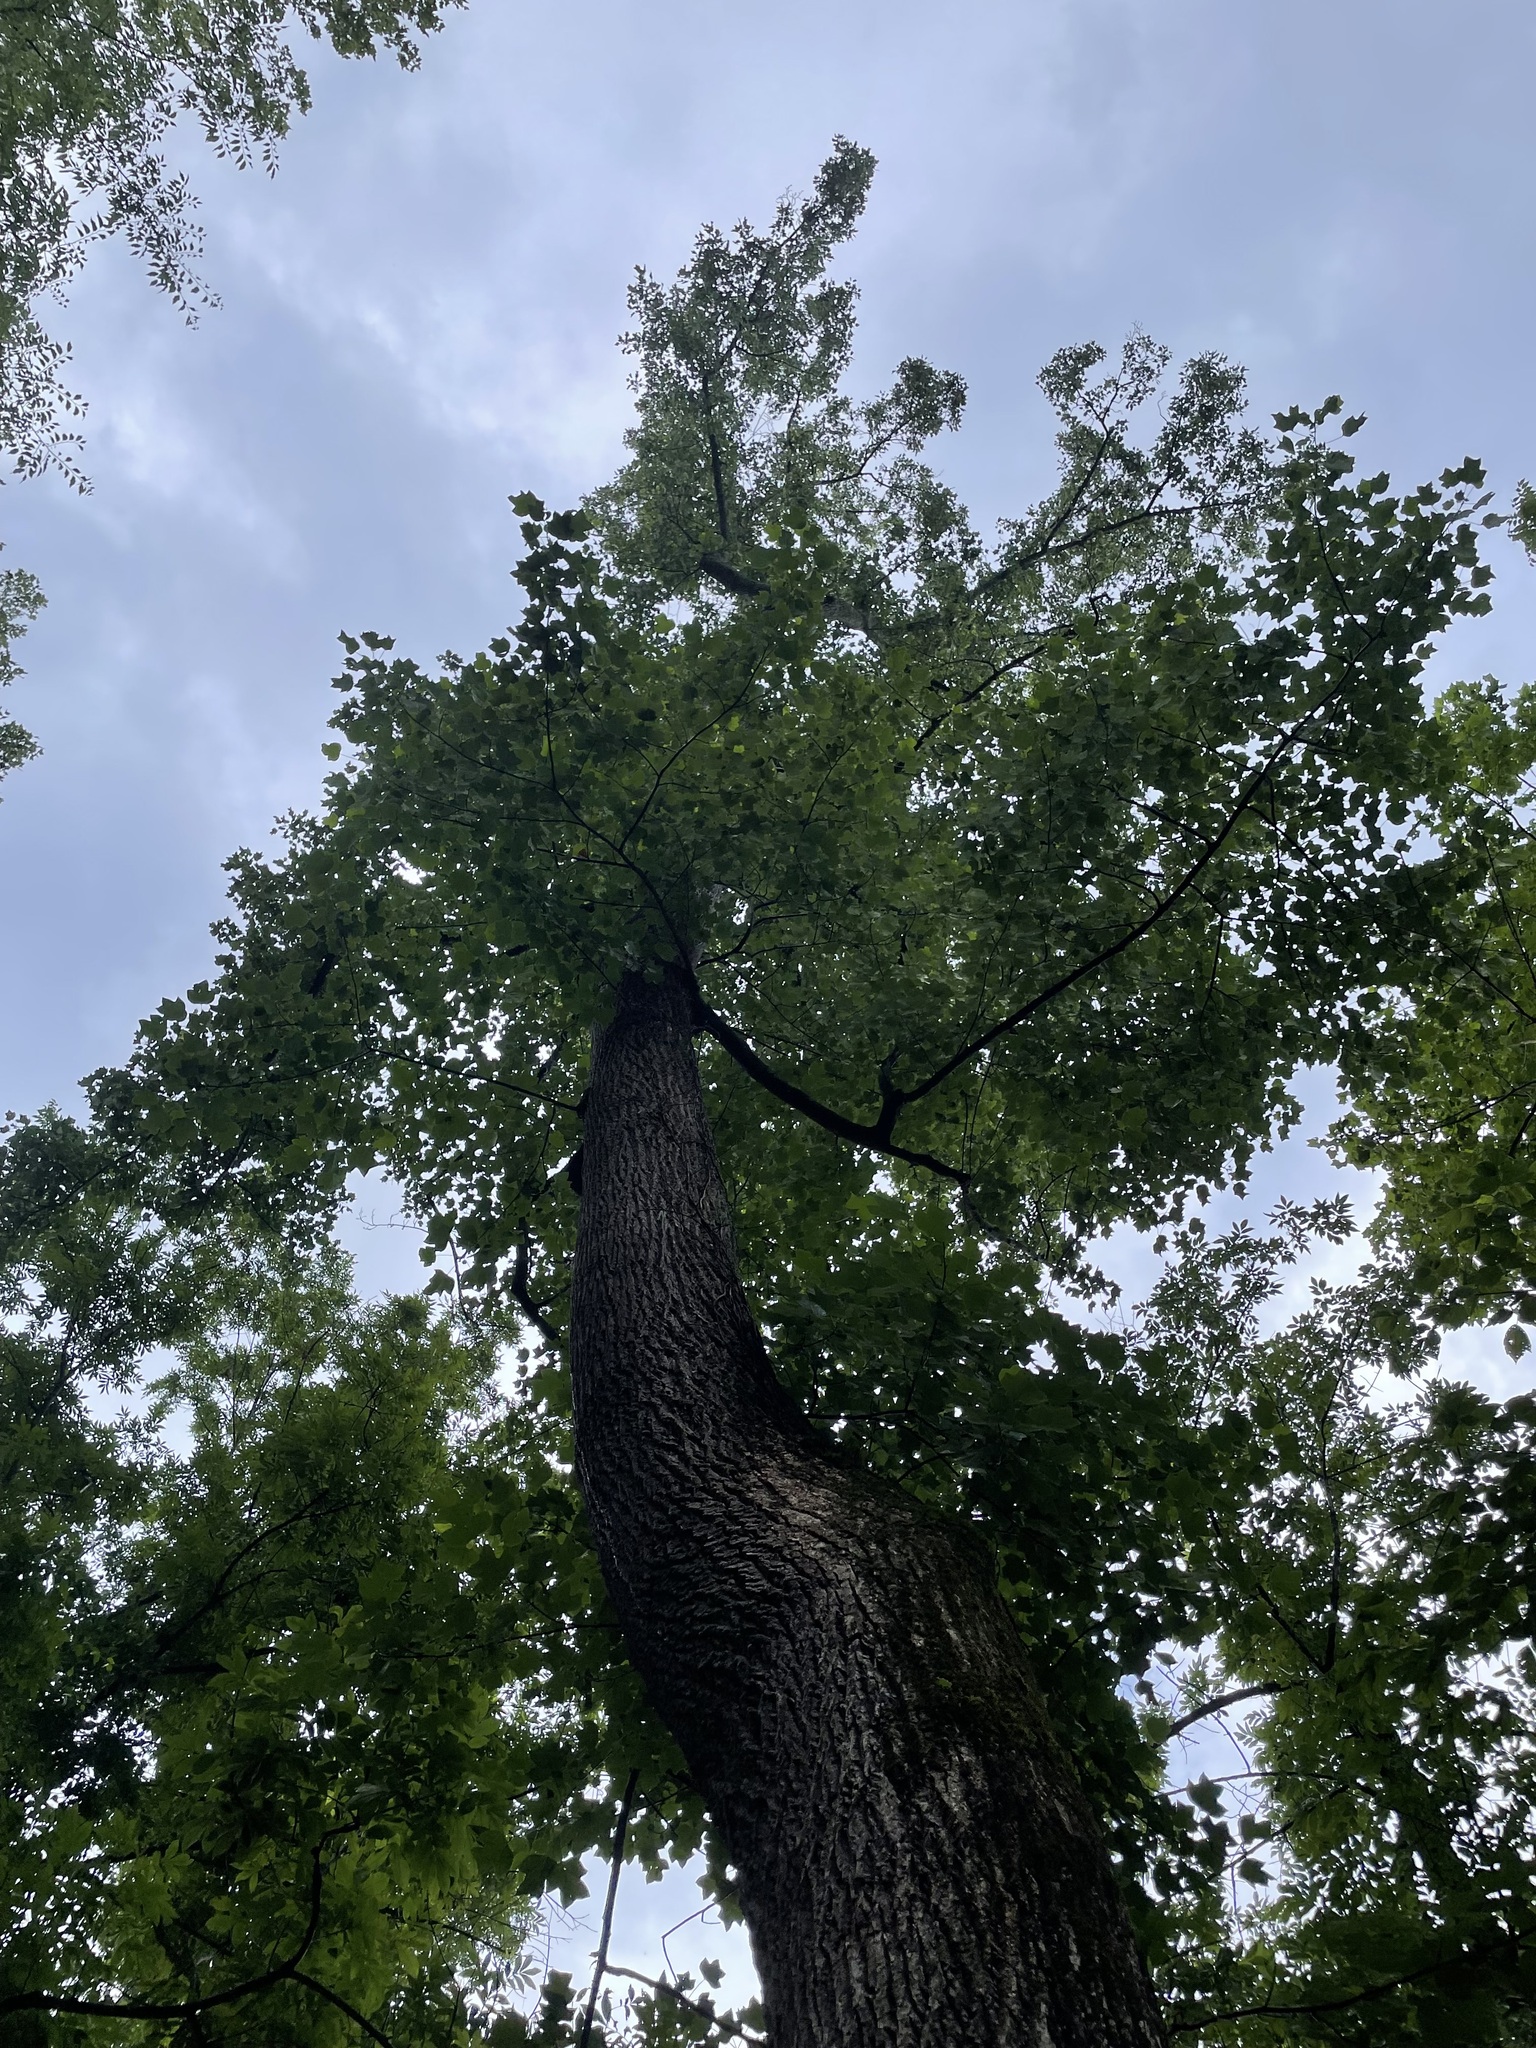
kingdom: Plantae
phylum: Tracheophyta
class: Magnoliopsida
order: Magnoliales
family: Magnoliaceae
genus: Liriodendron
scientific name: Liriodendron tulipifera
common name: Tulip tree
